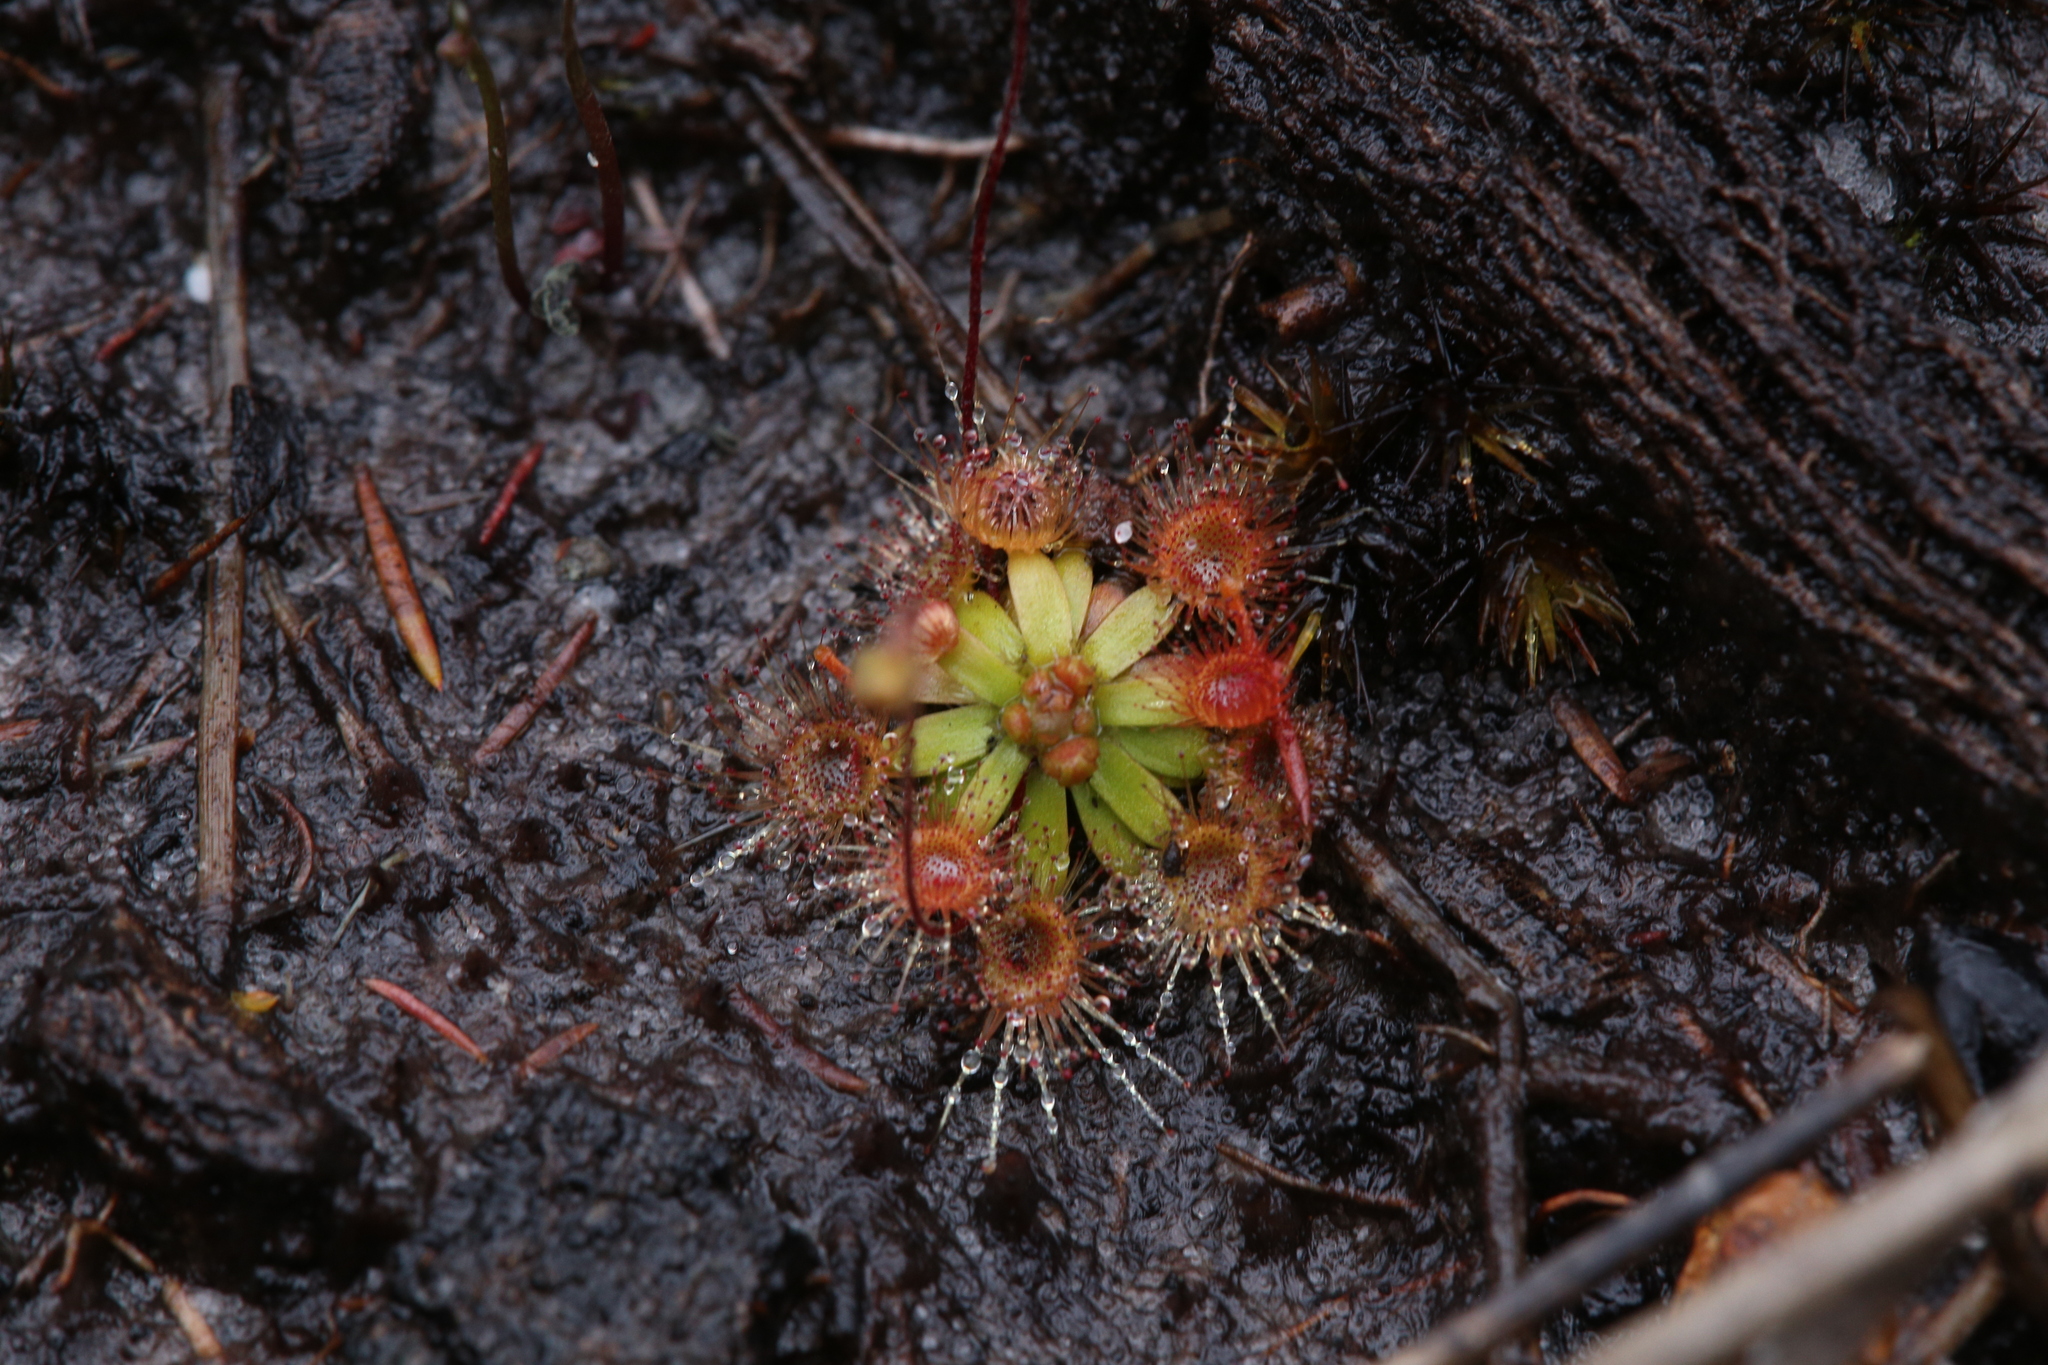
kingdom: Plantae
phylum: Tracheophyta
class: Magnoliopsida
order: Caryophyllales
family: Droseraceae
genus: Drosera
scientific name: Drosera pulchella
